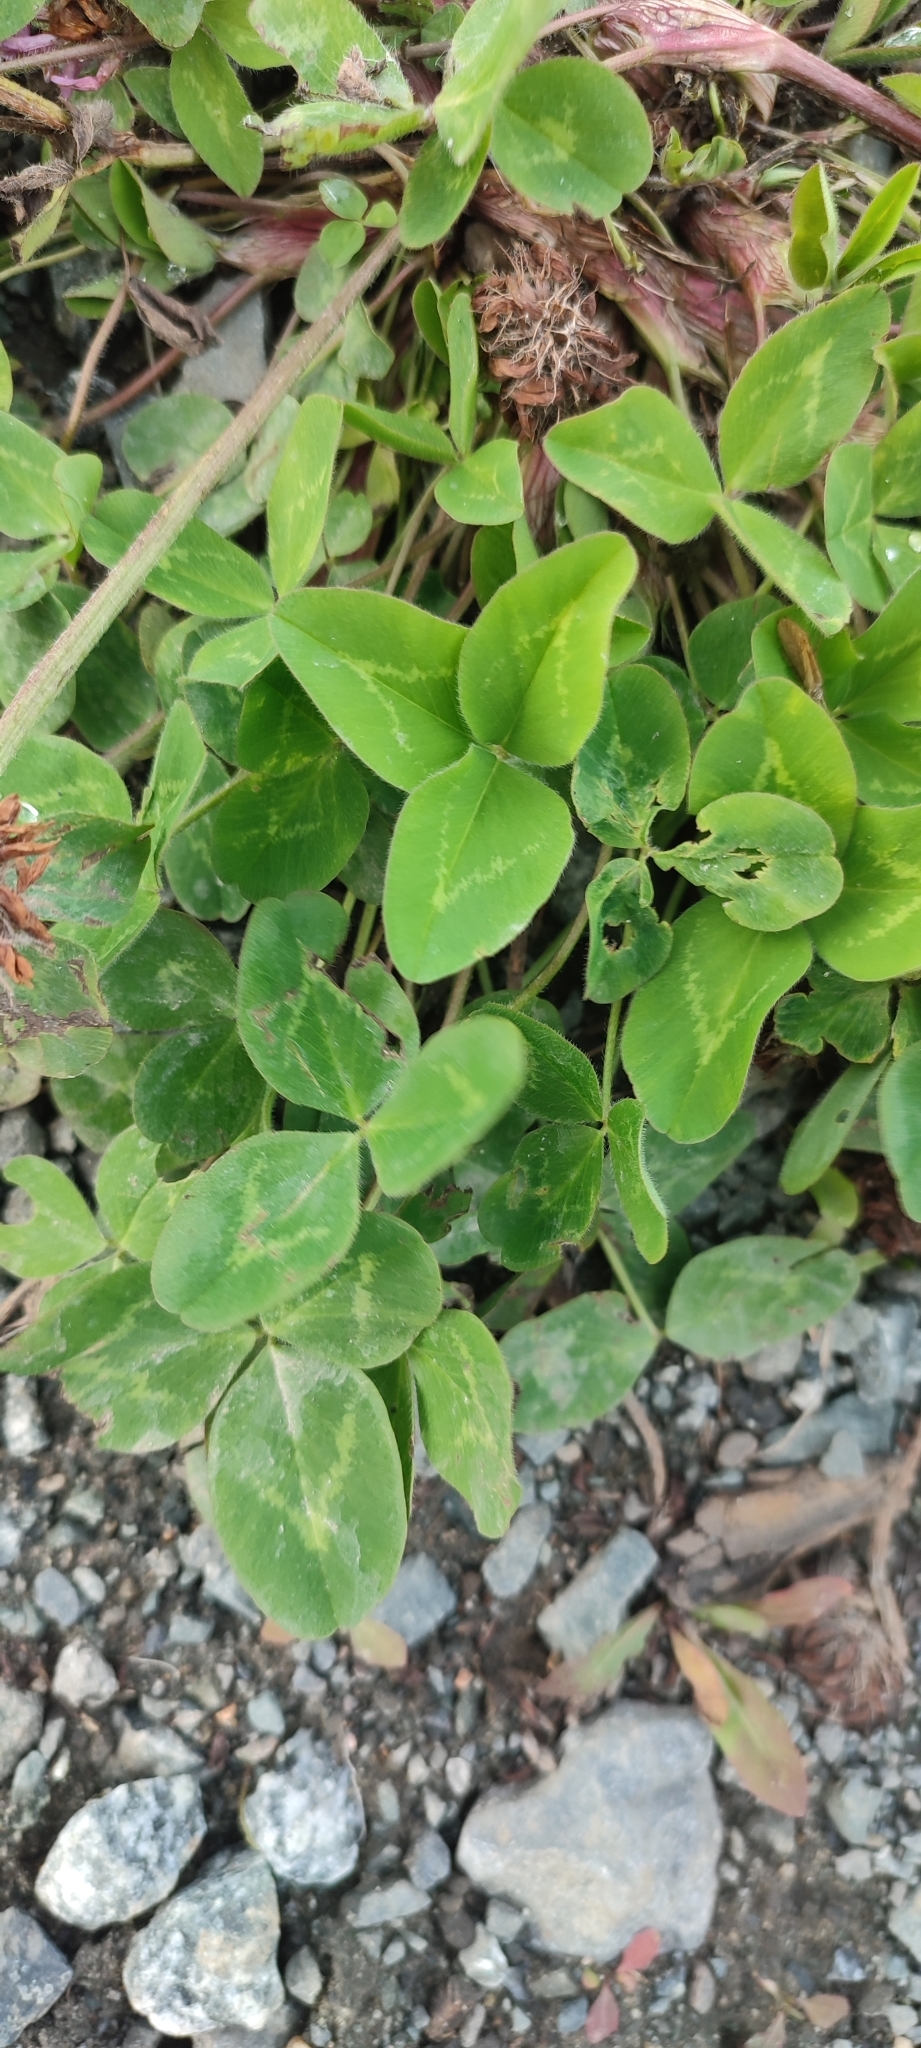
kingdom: Plantae
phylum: Tracheophyta
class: Magnoliopsida
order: Fabales
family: Fabaceae
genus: Trifolium
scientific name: Trifolium pratense
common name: Red clover
